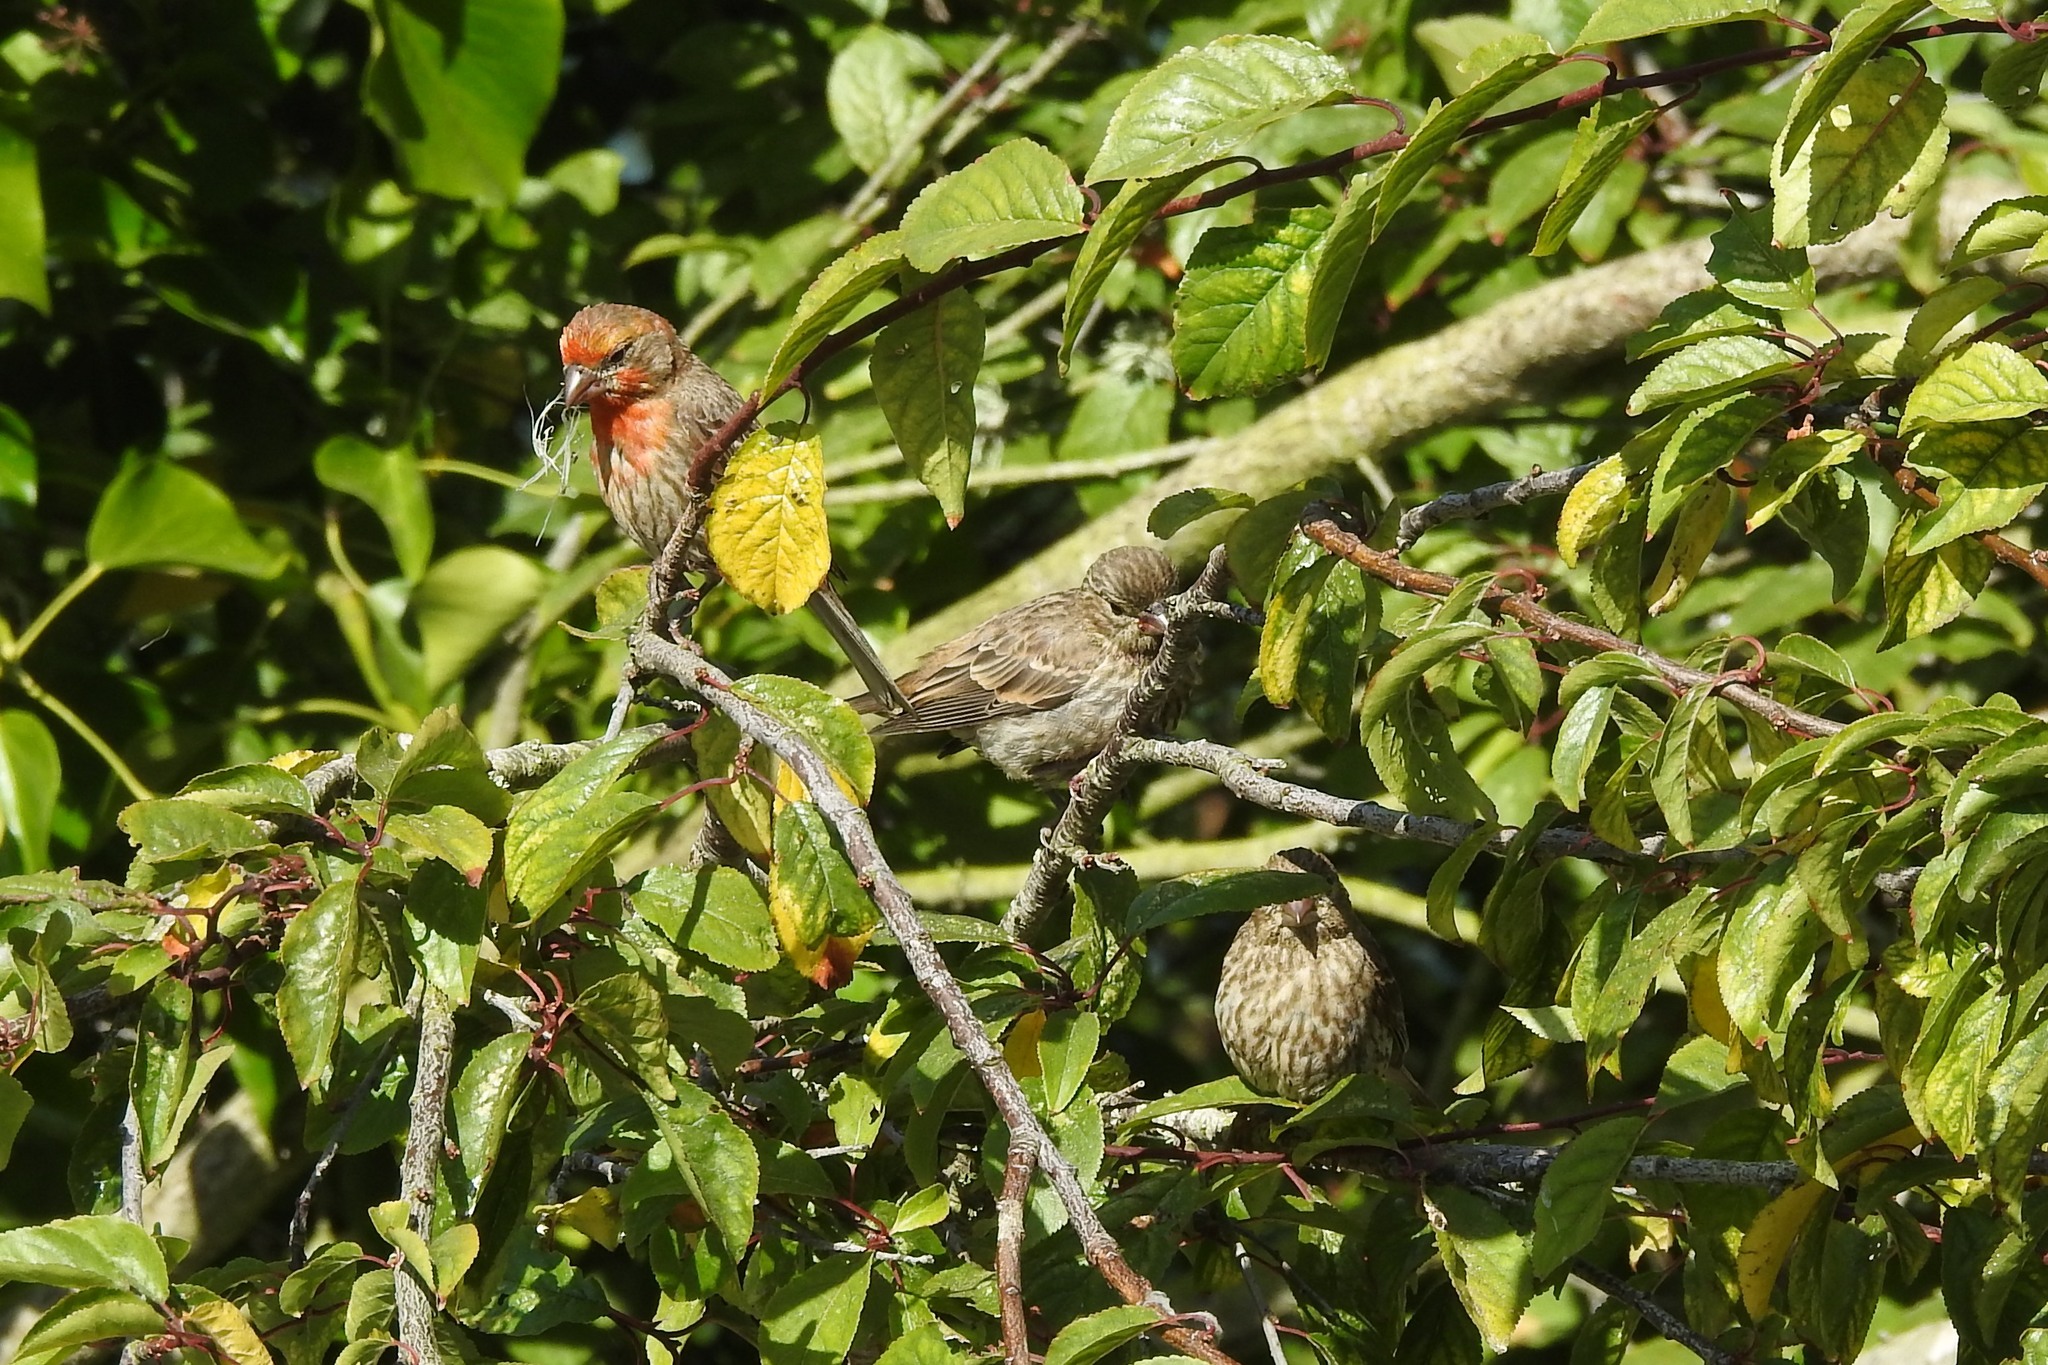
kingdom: Animalia
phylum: Chordata
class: Aves
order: Passeriformes
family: Fringillidae
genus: Haemorhous
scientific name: Haemorhous mexicanus
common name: House finch
